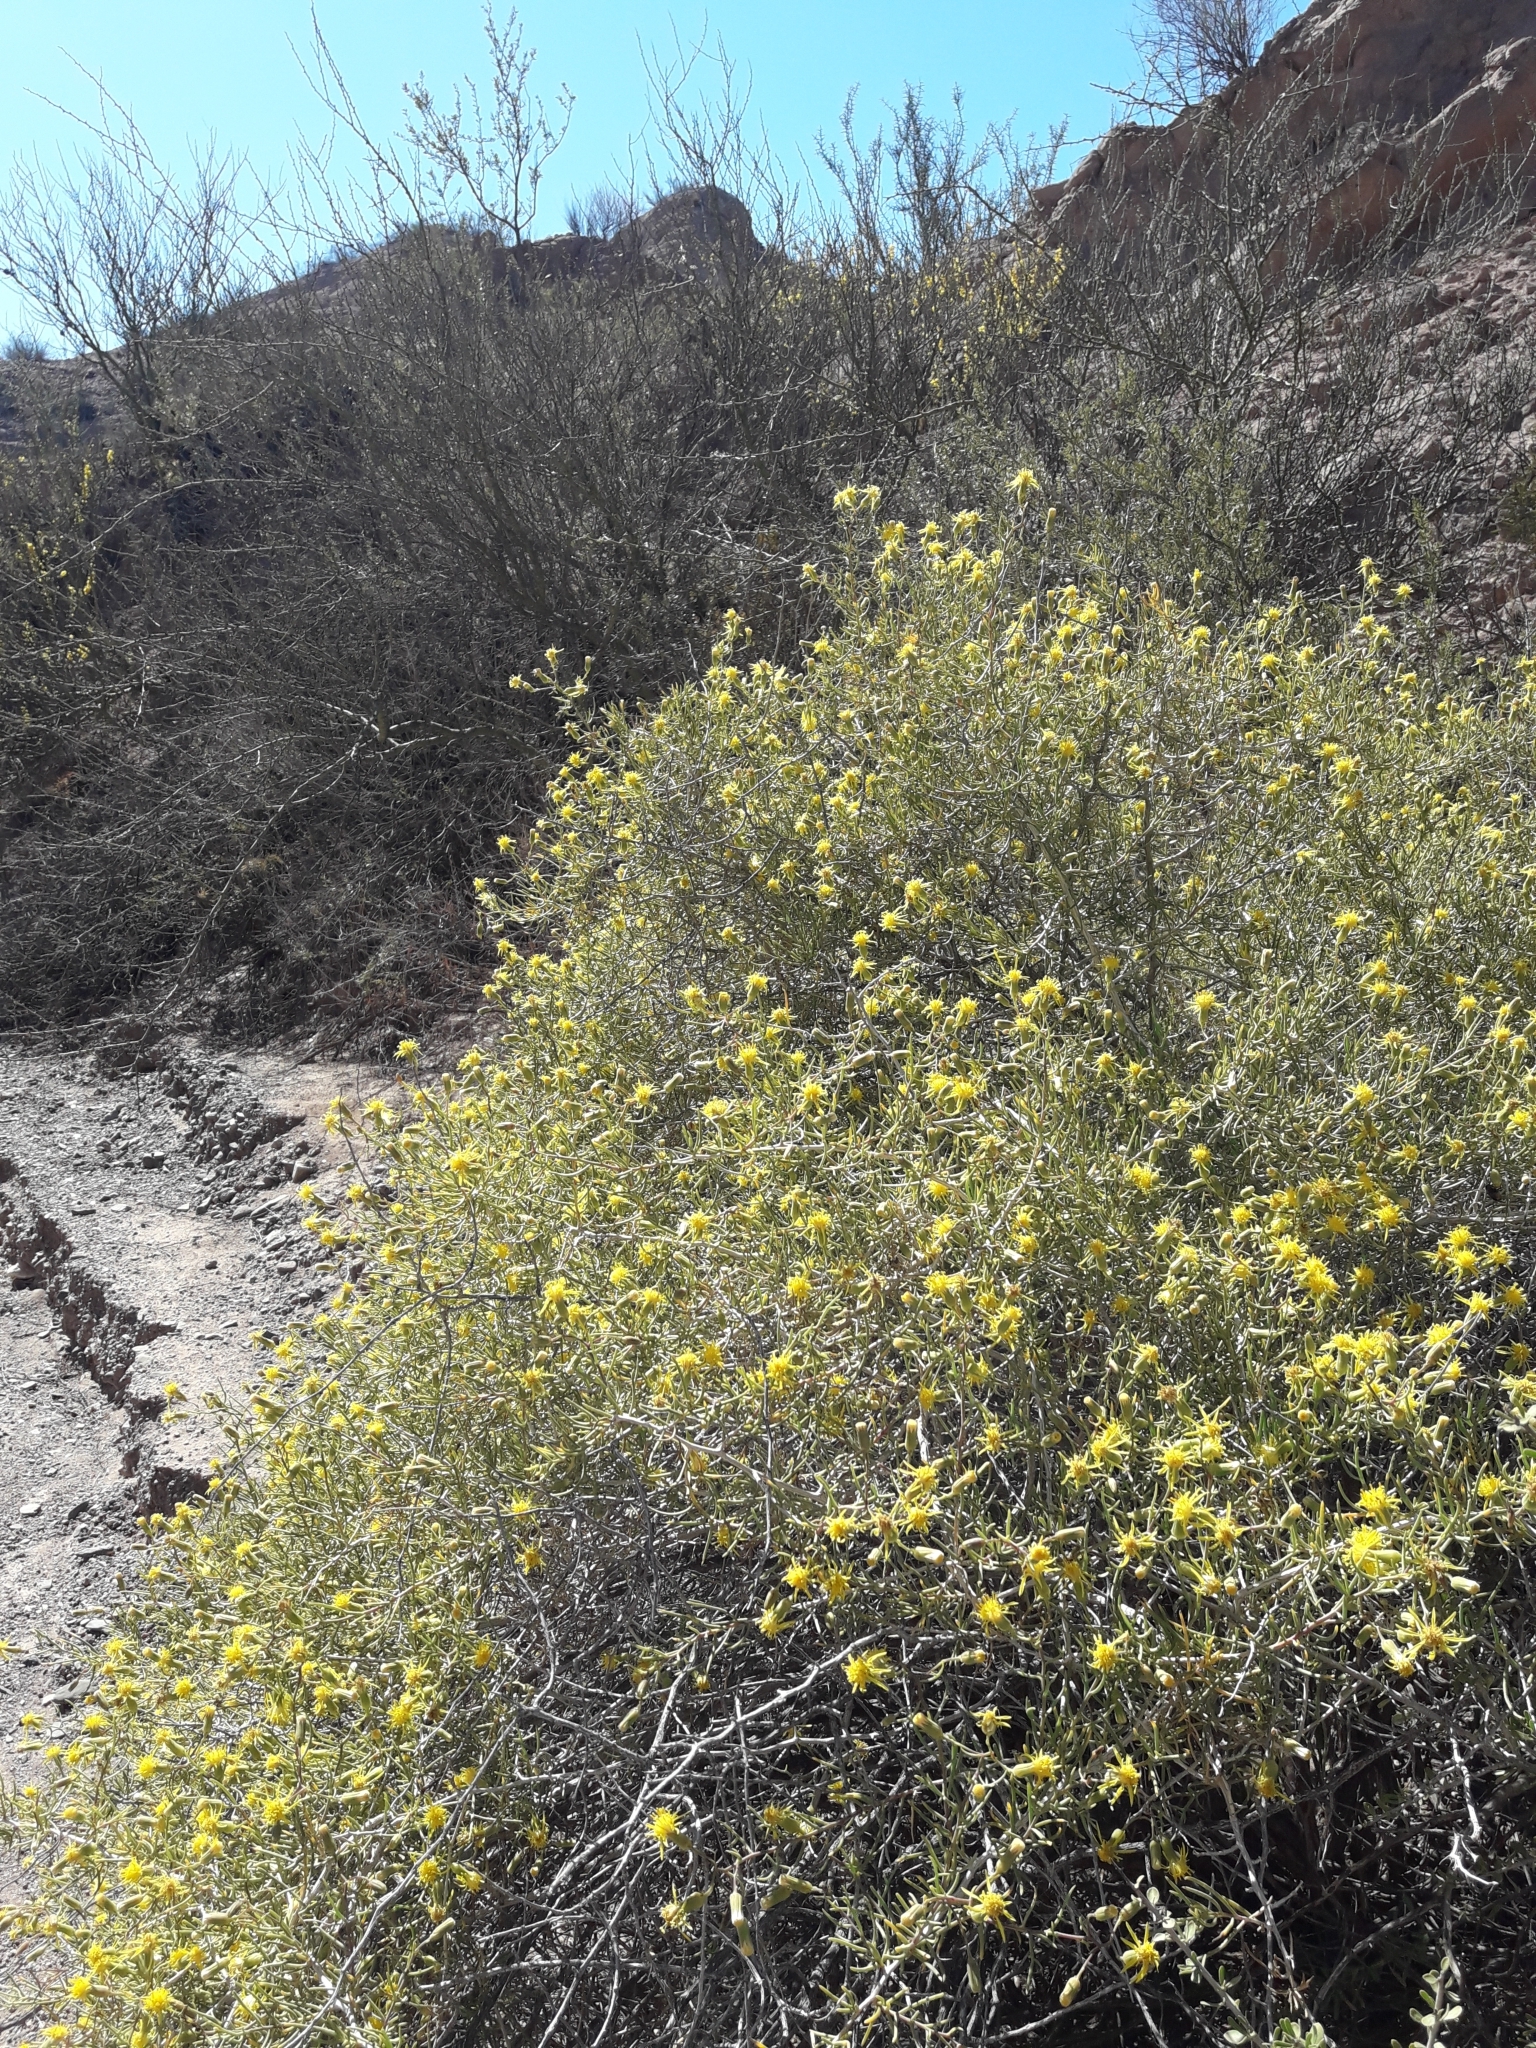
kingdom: Plantae
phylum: Tracheophyta
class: Magnoliopsida
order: Asterales
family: Asteraceae
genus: Senecio
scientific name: Senecio subulatus
